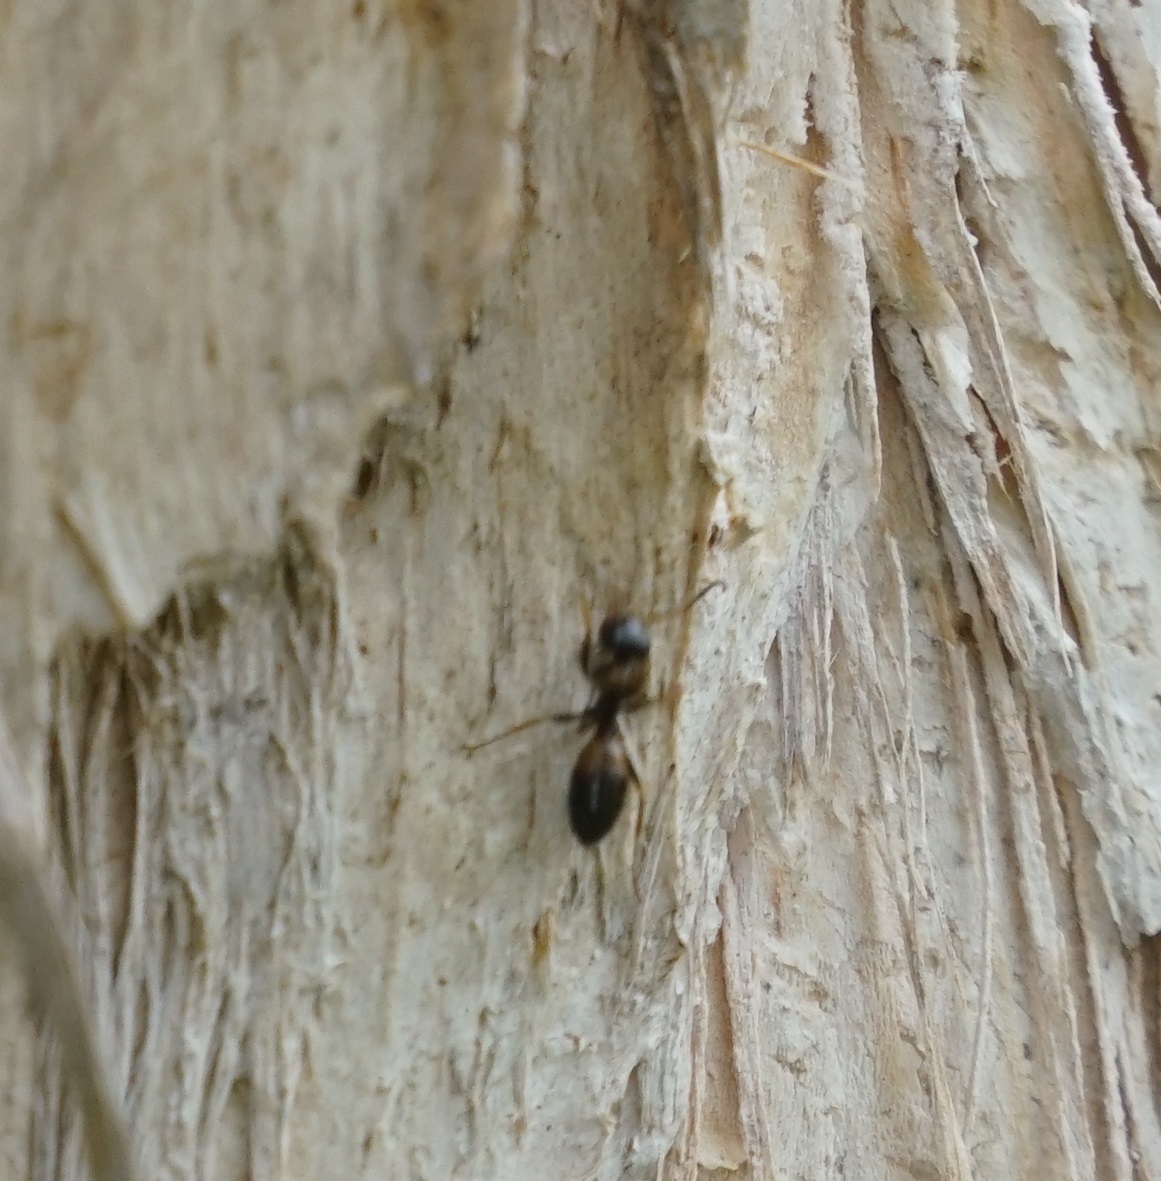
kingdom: Animalia
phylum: Arthropoda
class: Insecta
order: Hymenoptera
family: Formicidae
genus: Opisthopsis
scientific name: Opisthopsis respiciens
